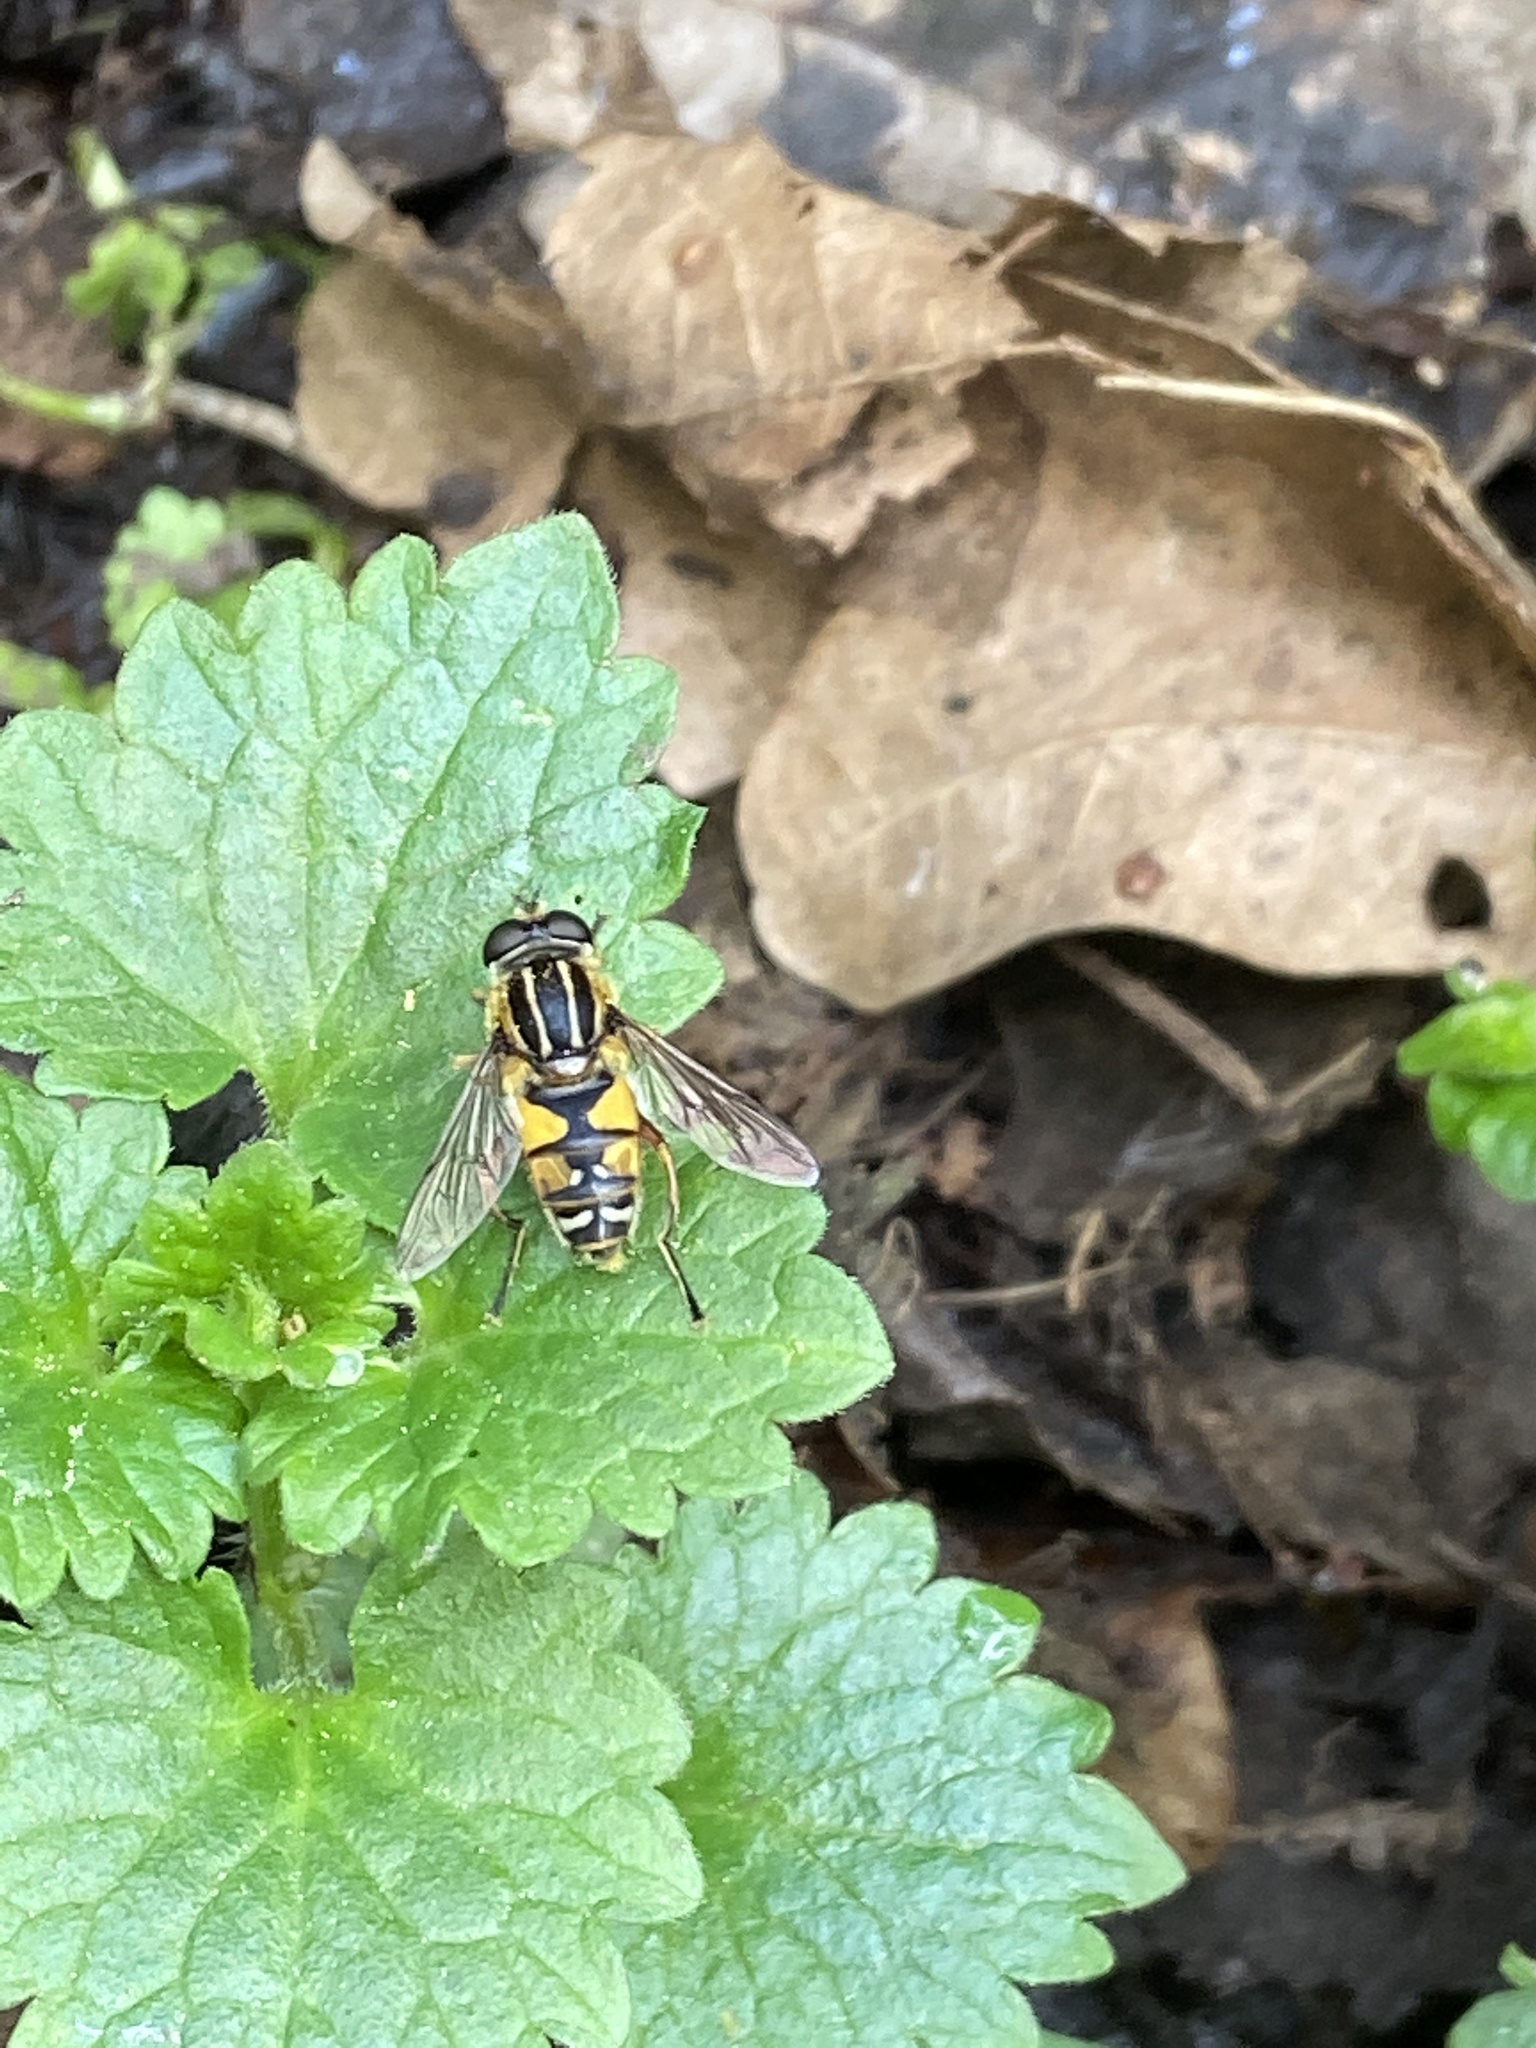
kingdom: Animalia
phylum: Arthropoda
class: Insecta
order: Diptera
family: Syrphidae
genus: Helophilus
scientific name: Helophilus pendulus
